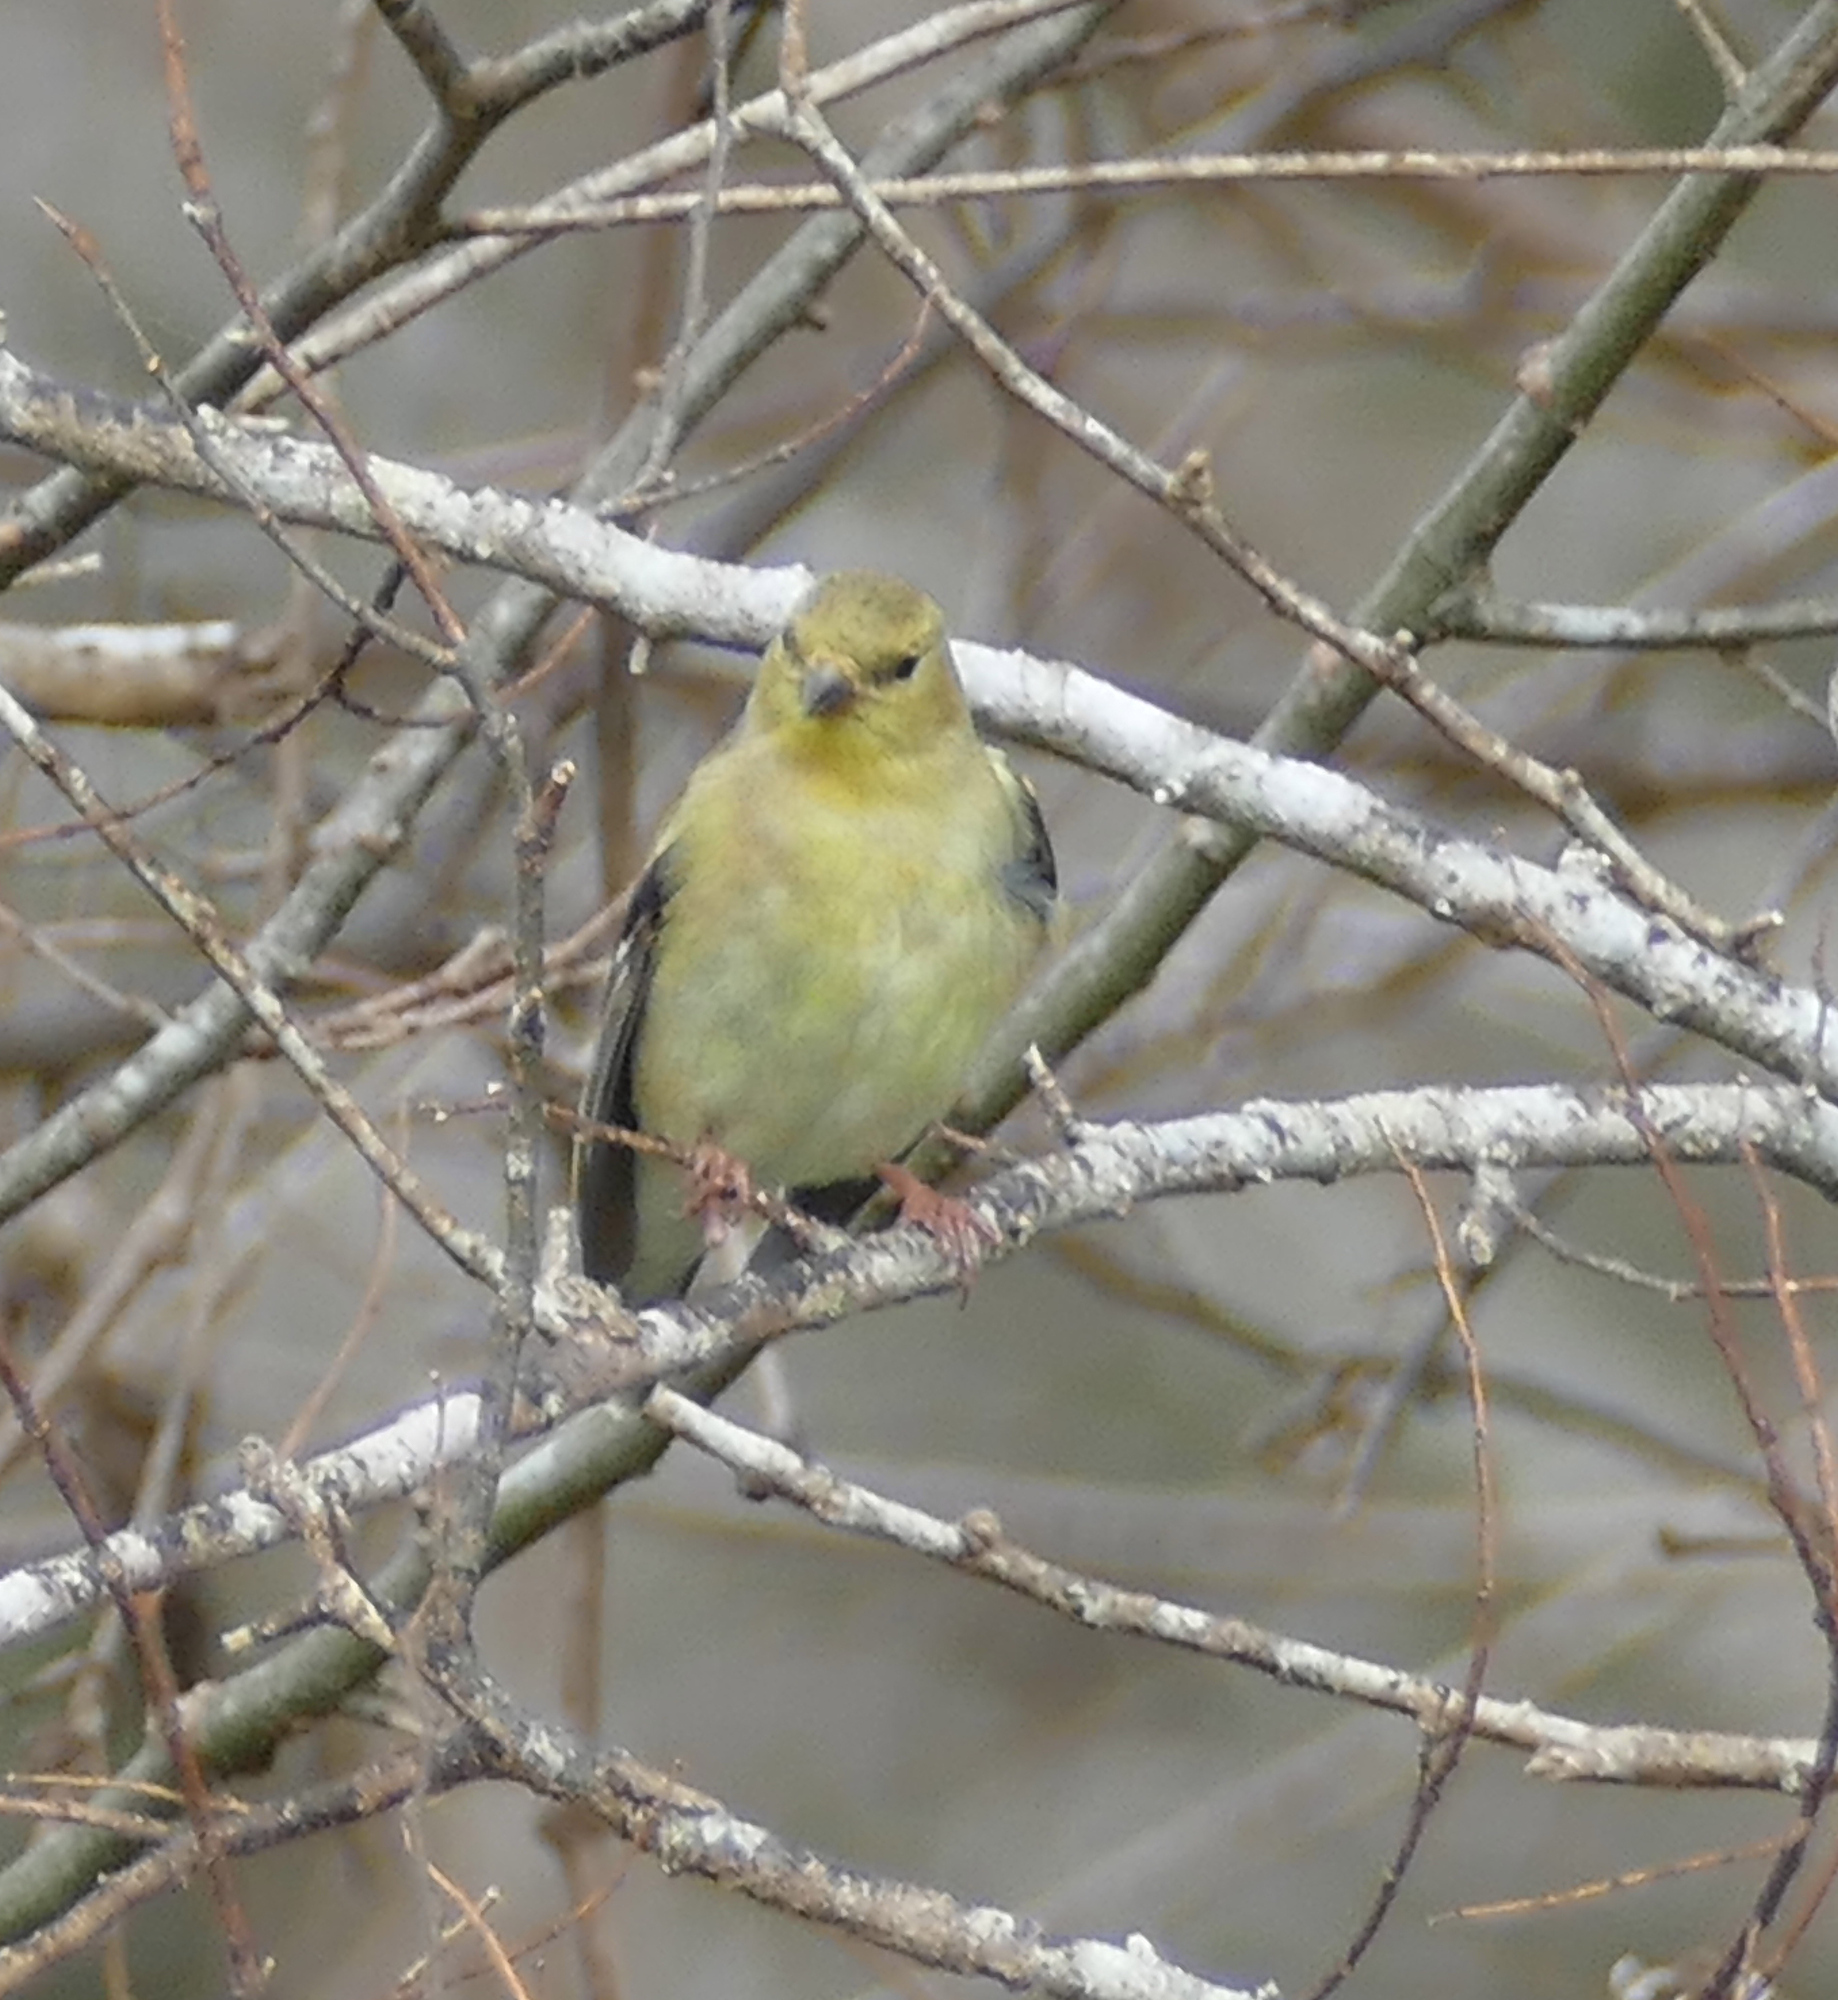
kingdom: Animalia
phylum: Chordata
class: Aves
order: Passeriformes
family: Fringillidae
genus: Spinus
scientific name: Spinus tristis
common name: American goldfinch
